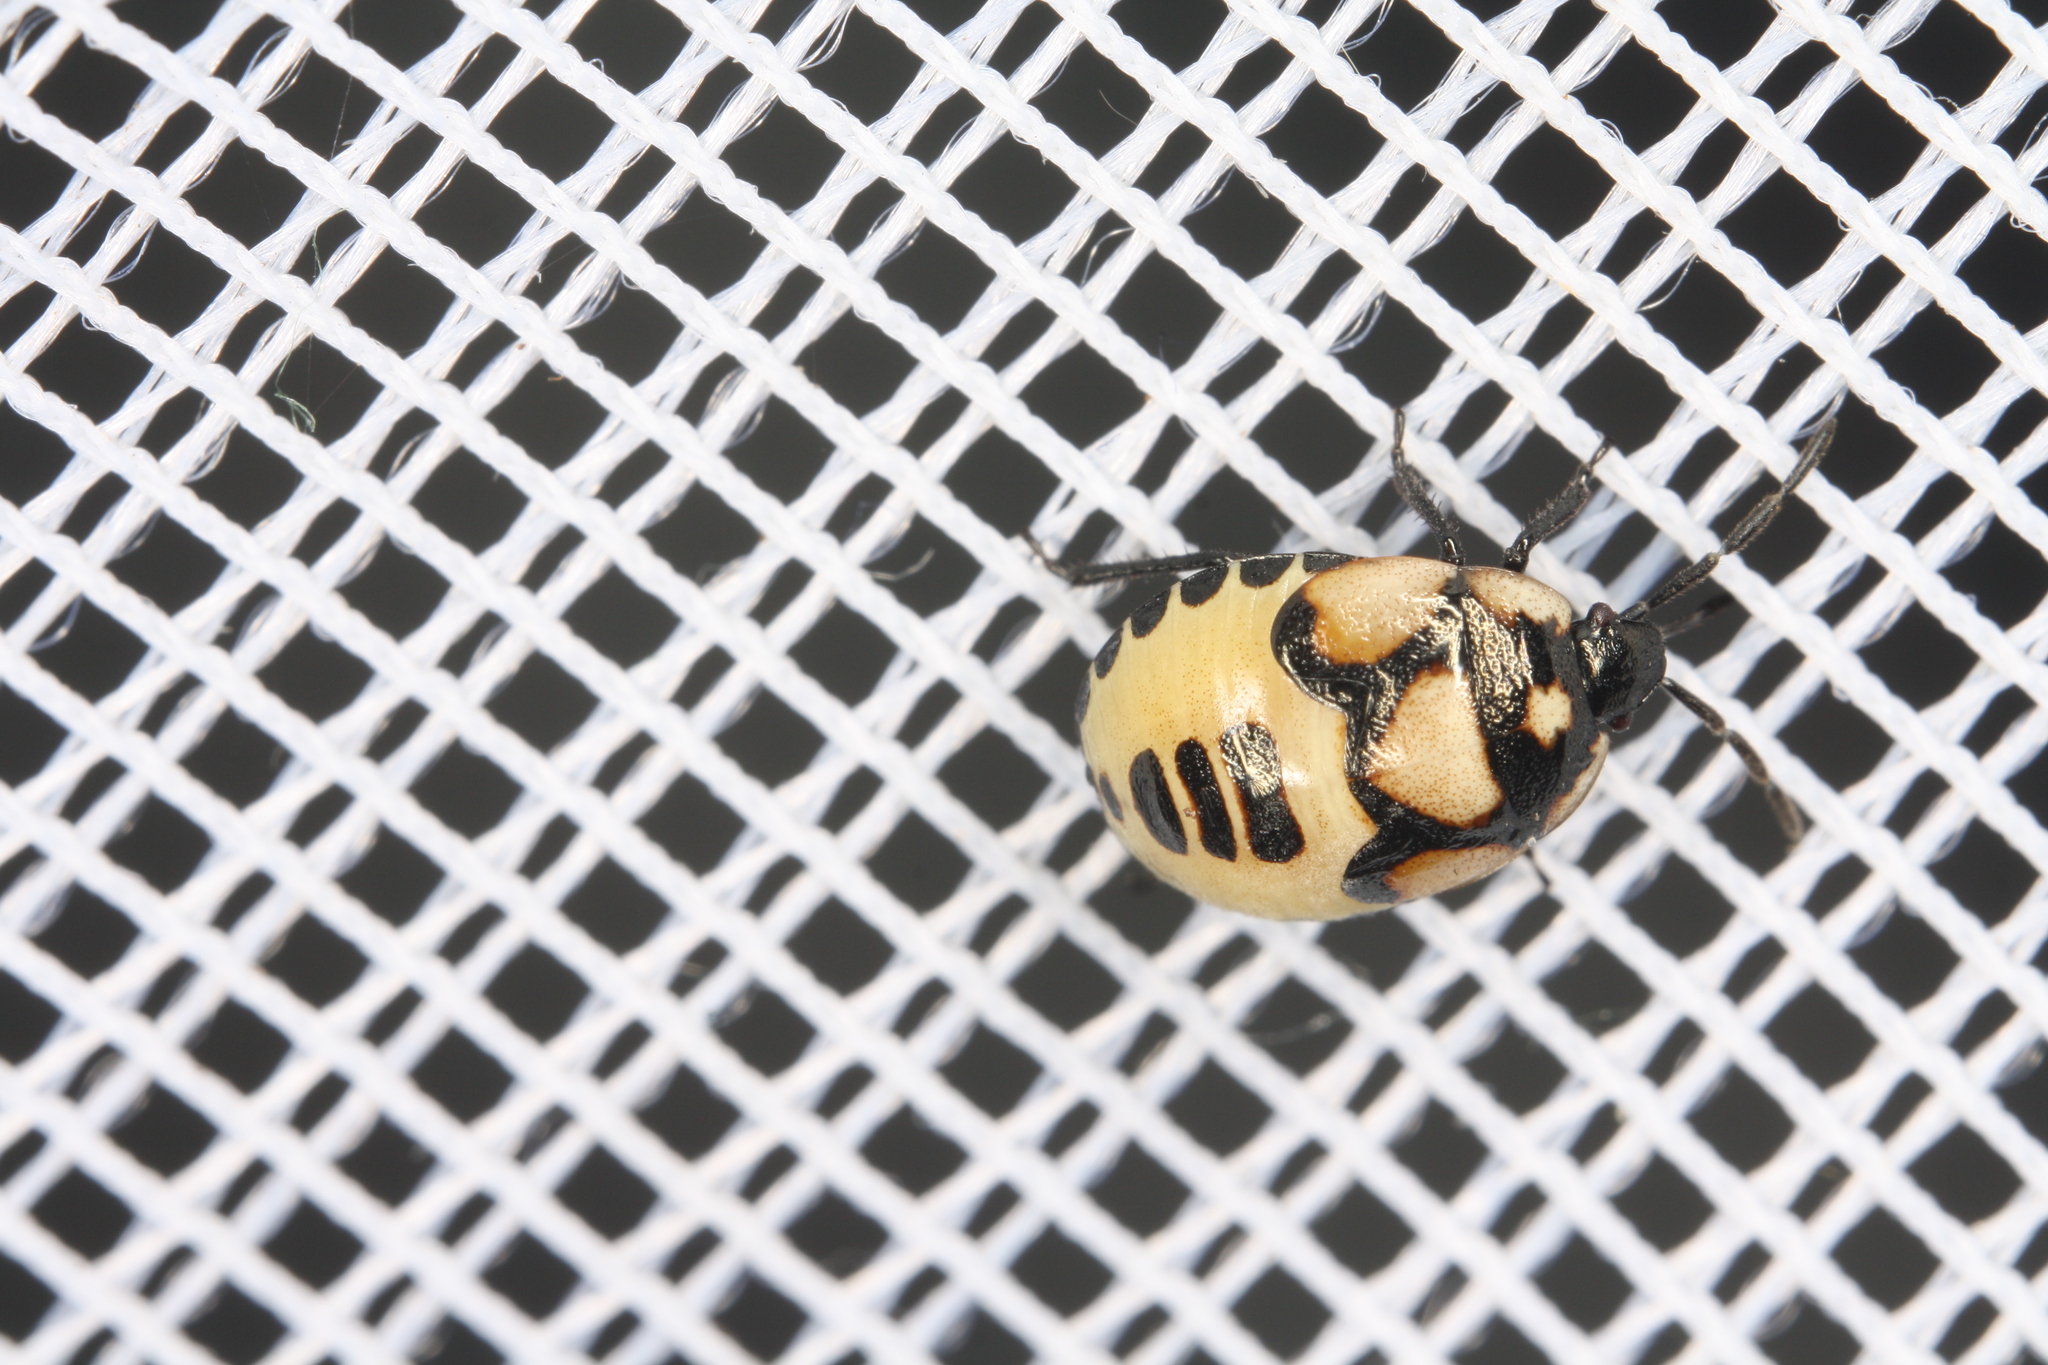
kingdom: Animalia
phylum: Arthropoda
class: Insecta
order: Hemiptera
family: Cydnidae
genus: Tritomegas
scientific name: Tritomegas bicolor
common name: Pied shieldbug
